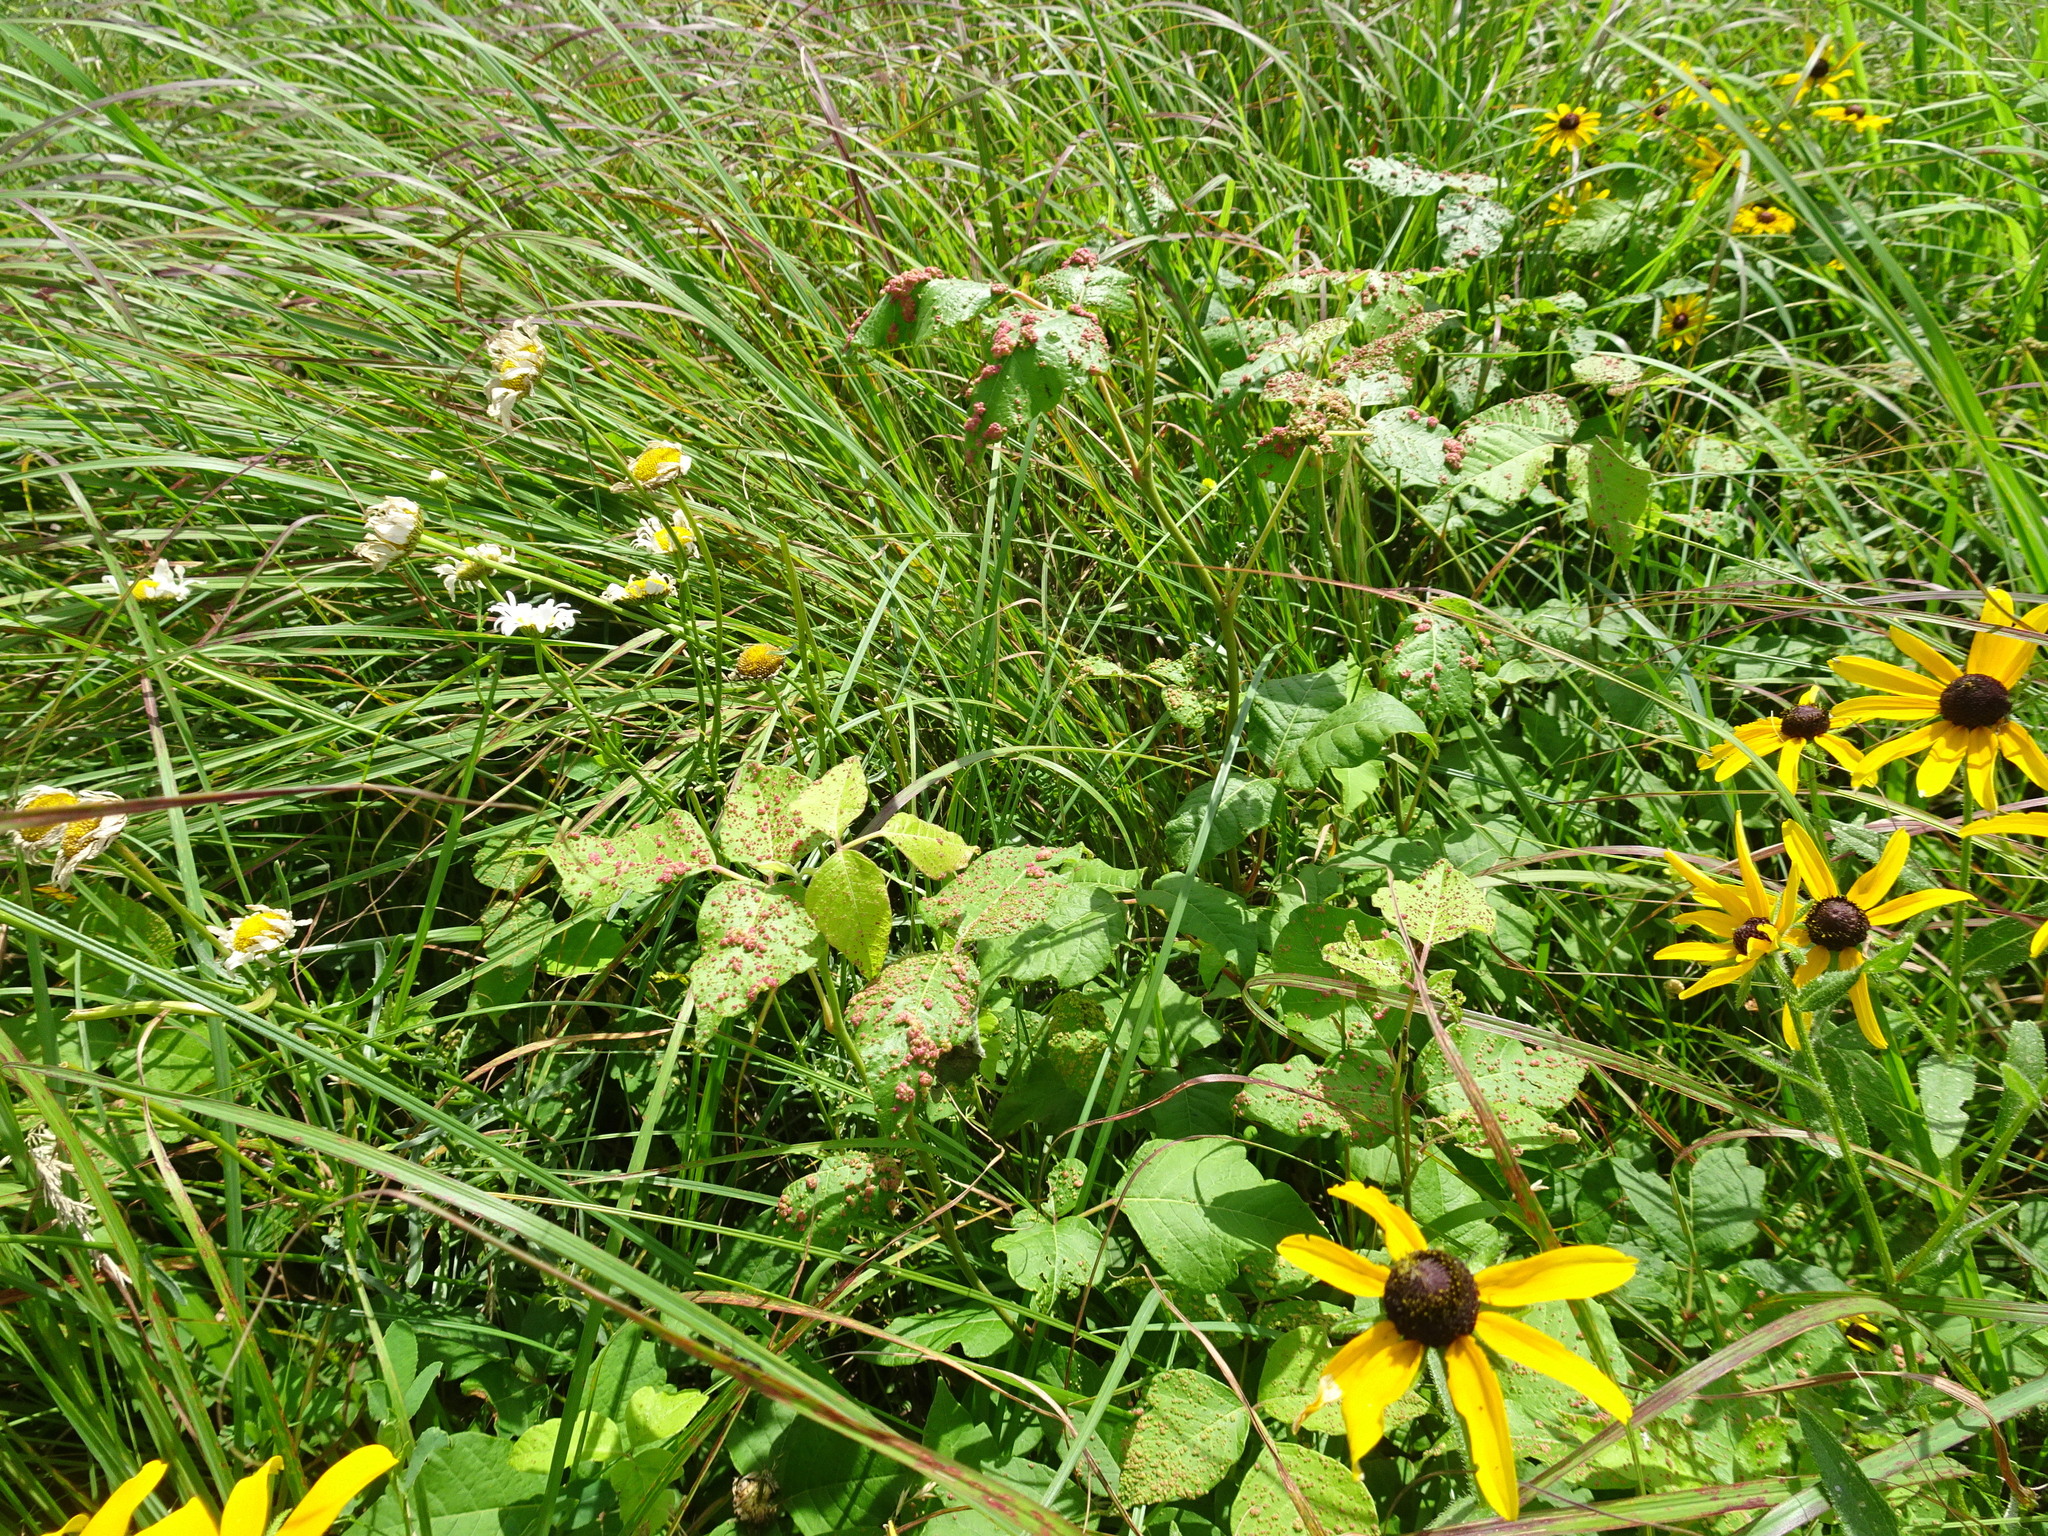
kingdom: Plantae
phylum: Tracheophyta
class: Magnoliopsida
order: Sapindales
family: Anacardiaceae
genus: Toxicodendron
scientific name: Toxicodendron radicans
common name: Poison ivy
